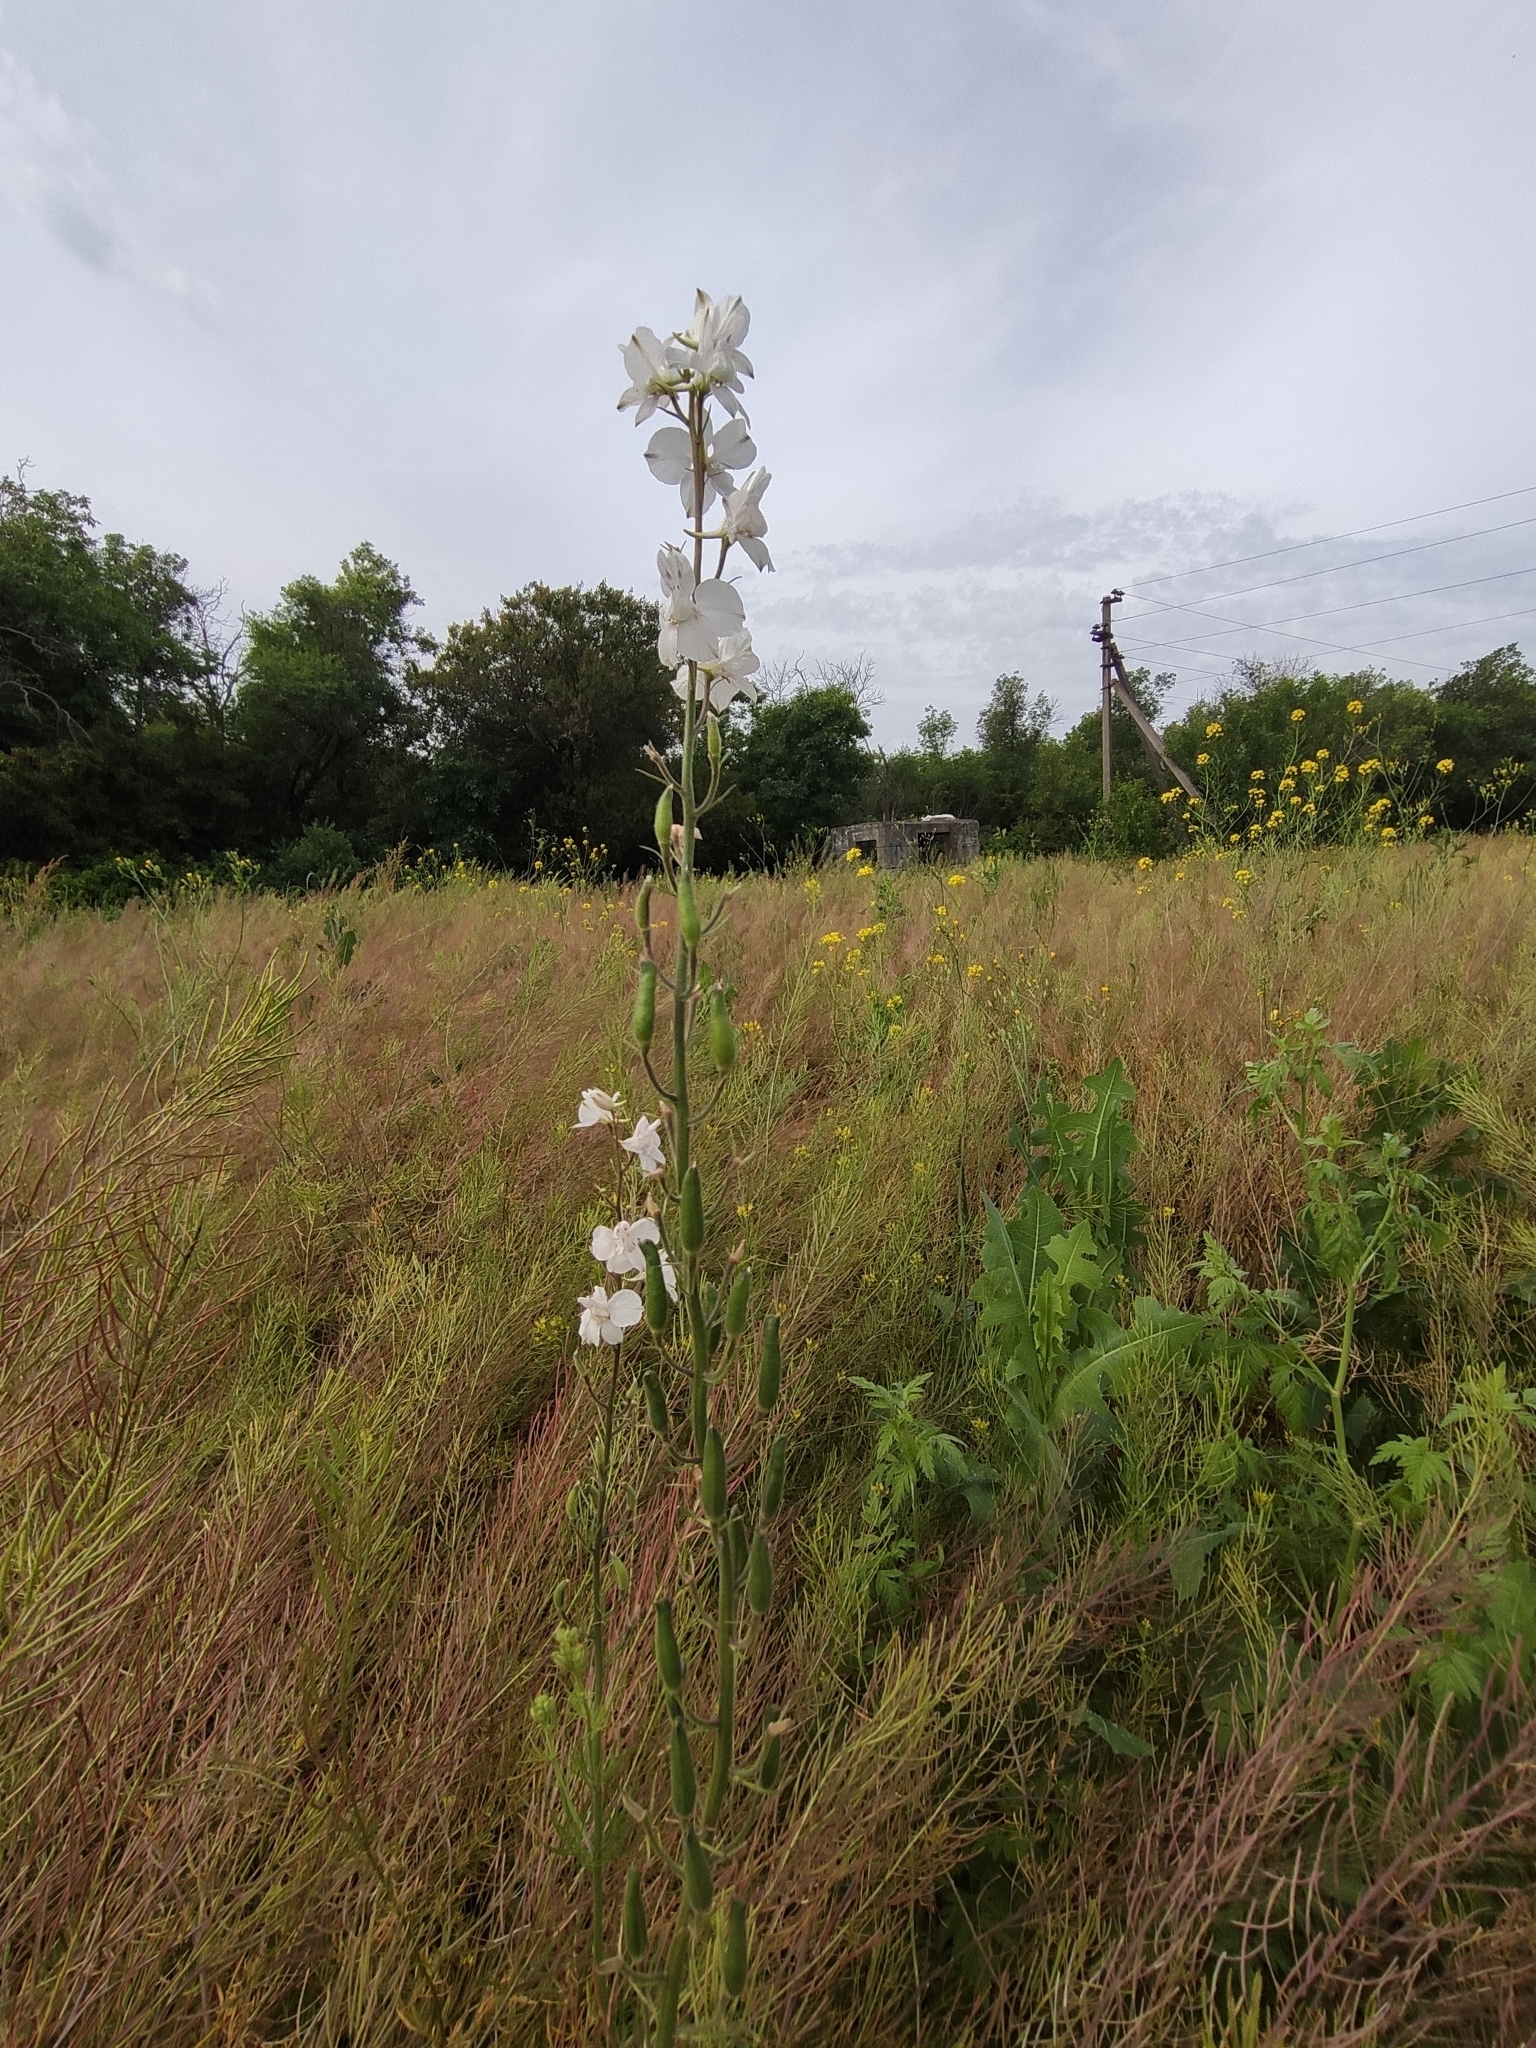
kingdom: Plantae
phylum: Tracheophyta
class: Magnoliopsida
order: Ranunculales
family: Ranunculaceae
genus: Delphinium
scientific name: Delphinium ajacis
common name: Doubtful knight's-spur
